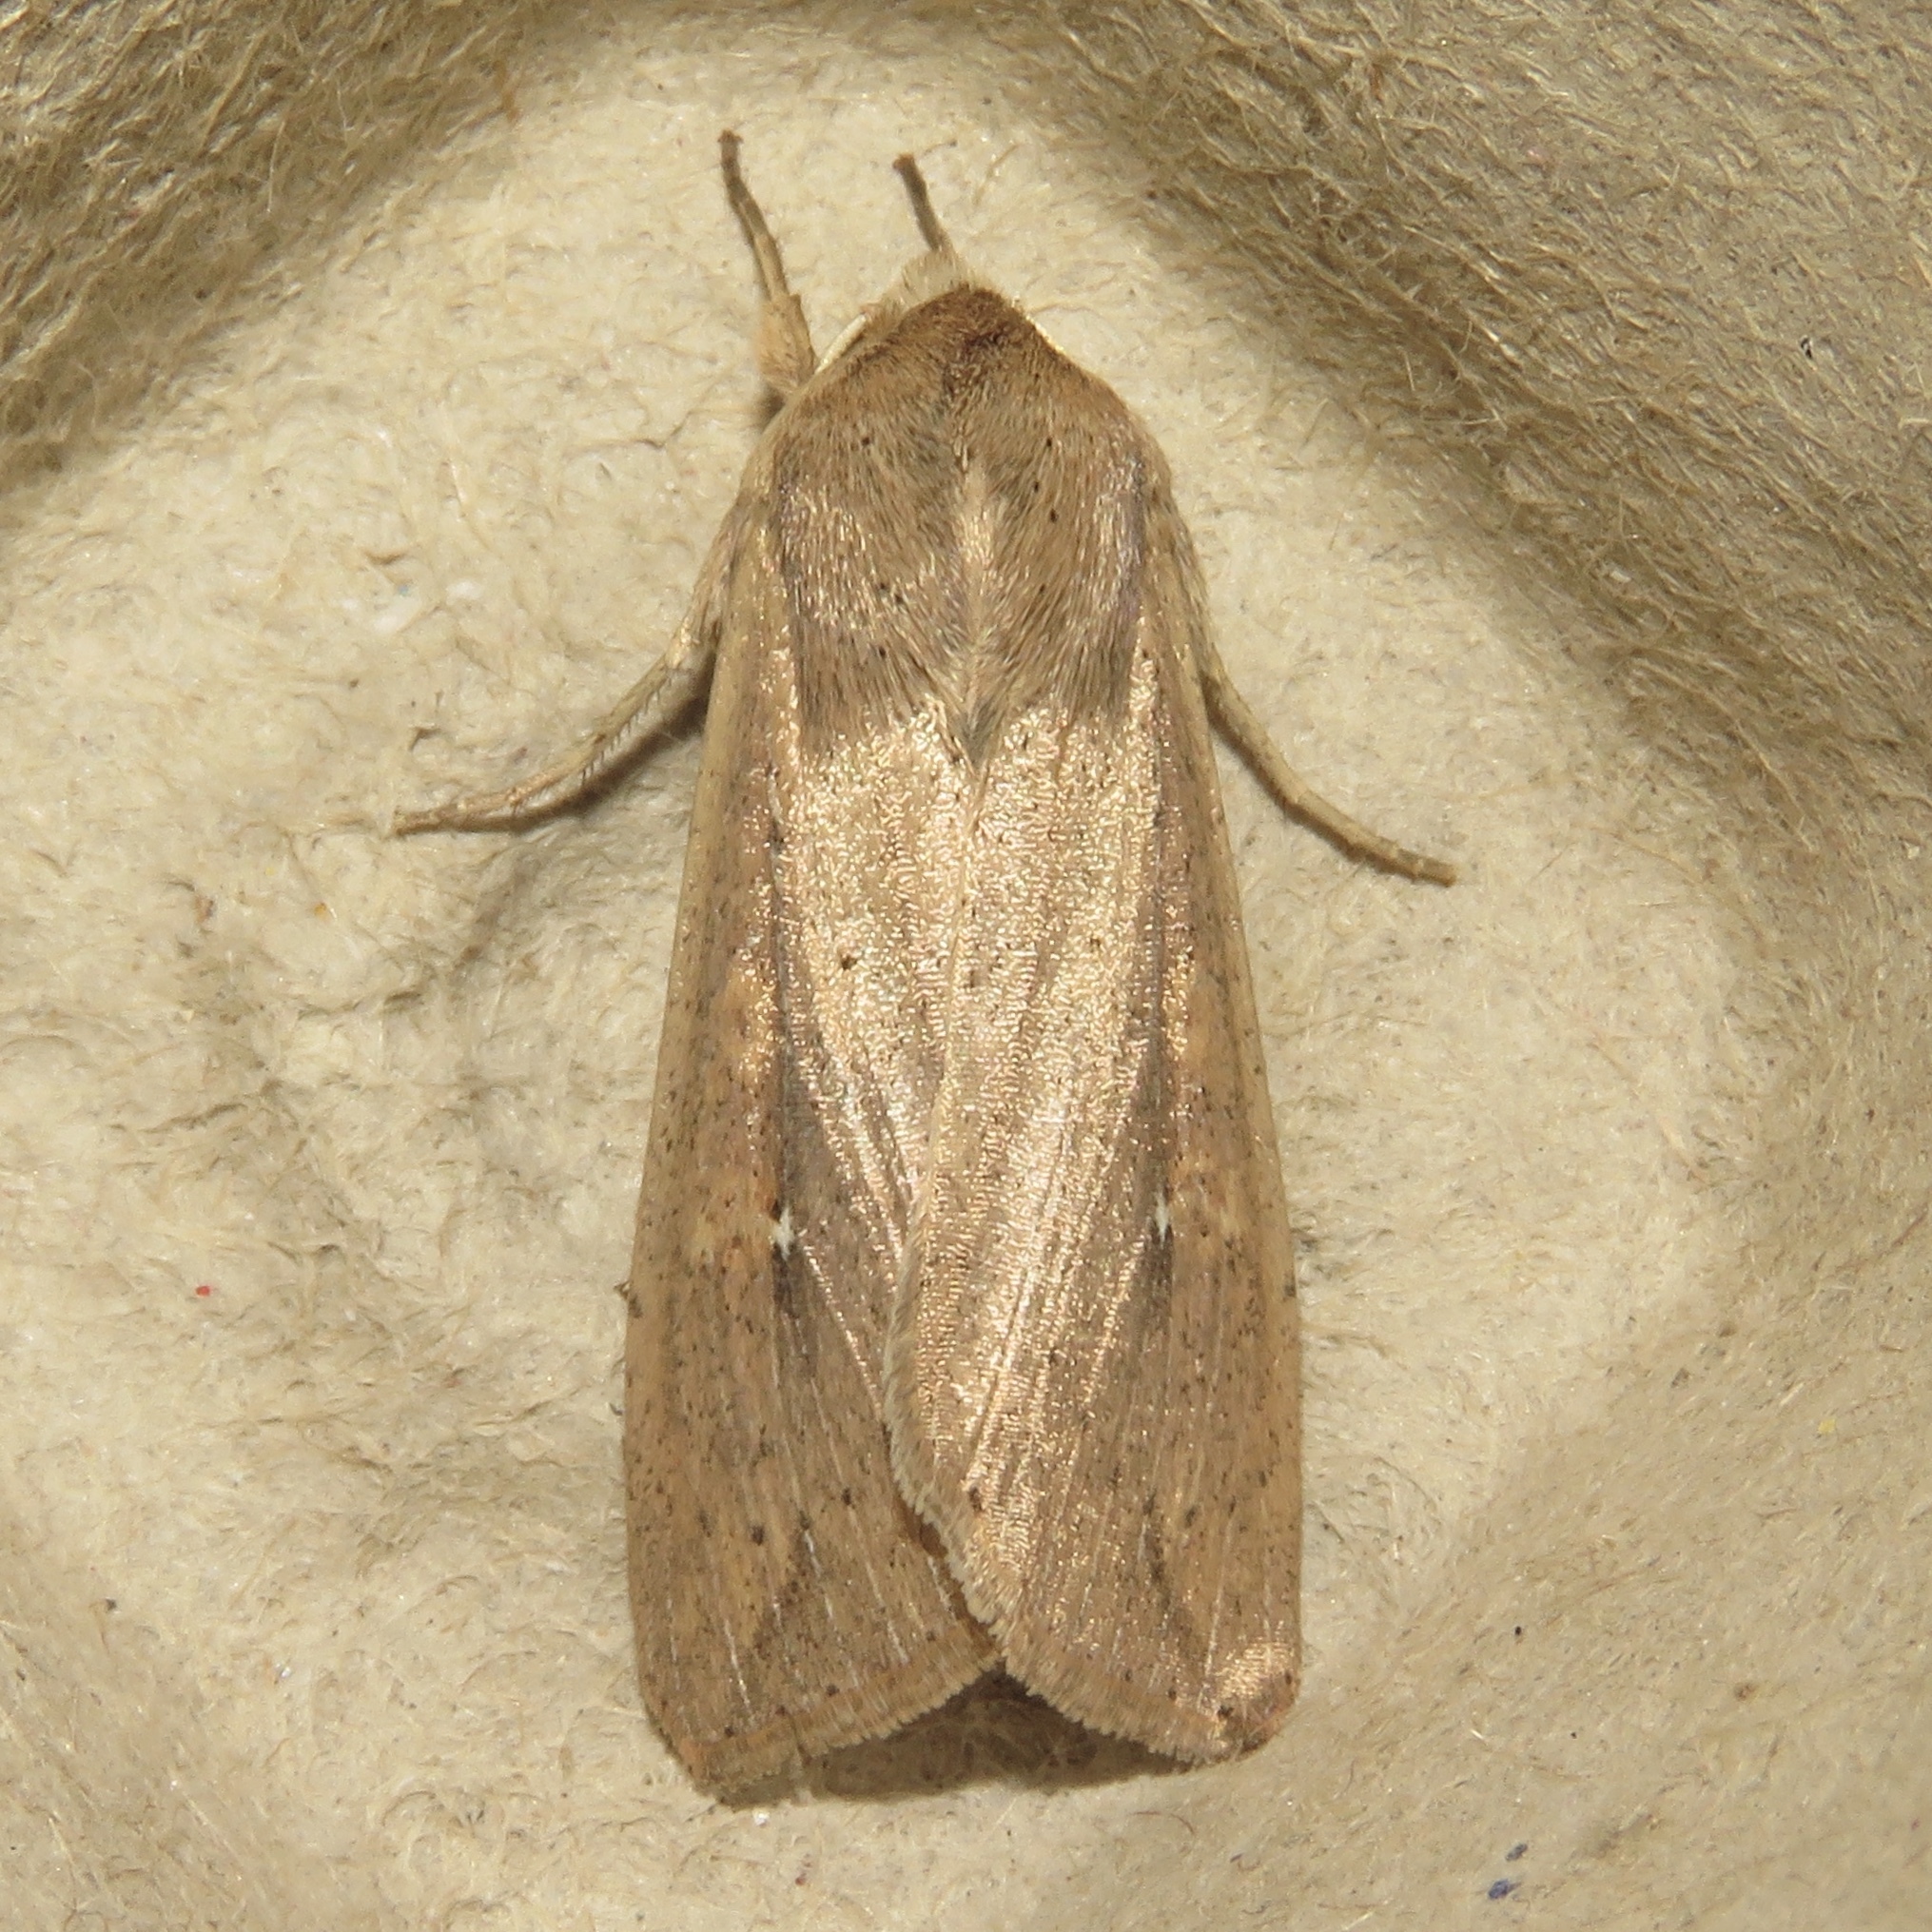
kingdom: Animalia
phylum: Arthropoda
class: Insecta
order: Lepidoptera
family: Noctuidae
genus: Mythimna
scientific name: Mythimna unipuncta
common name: White-speck
